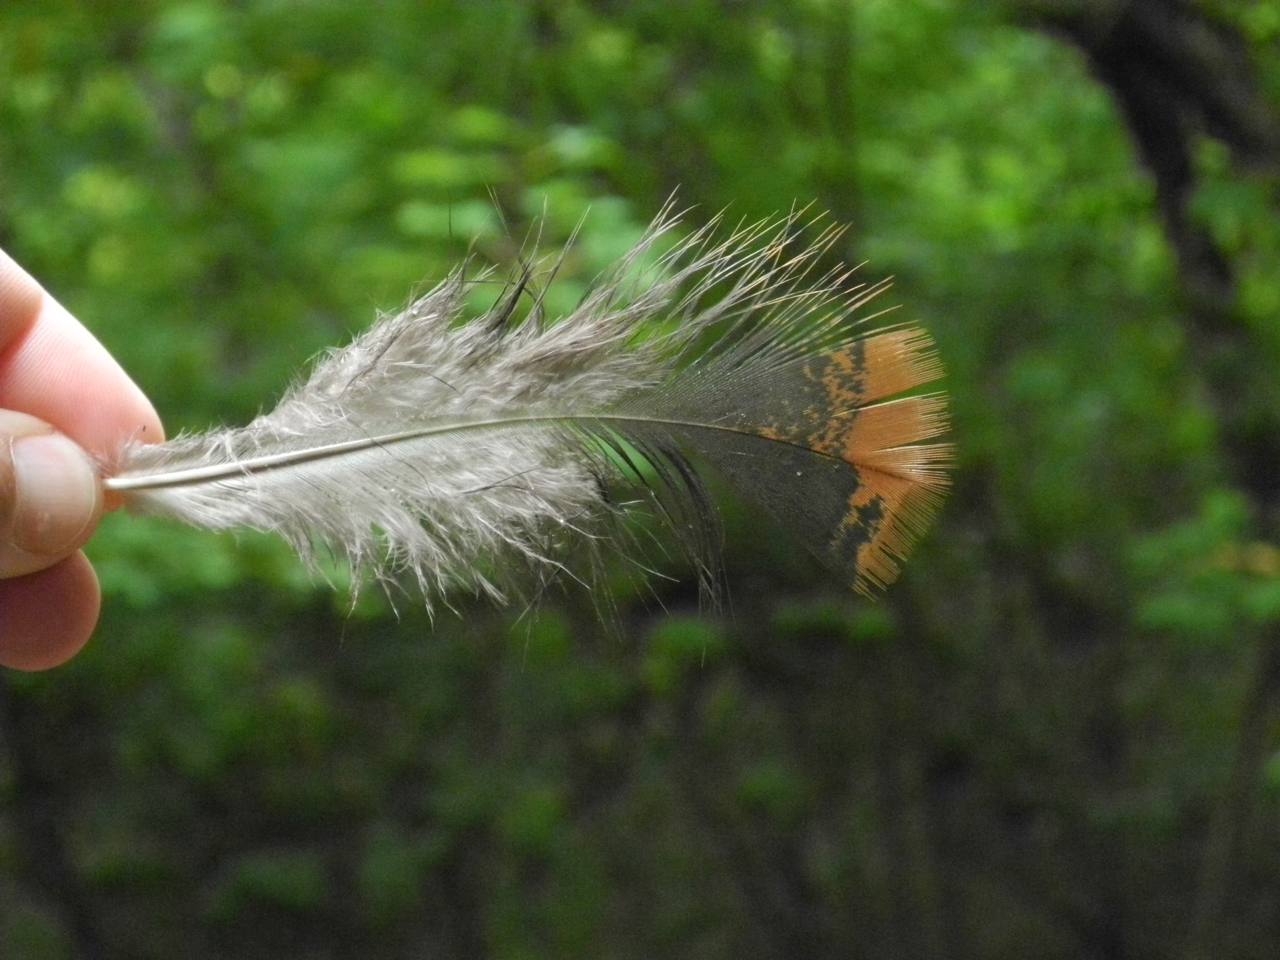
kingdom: Animalia
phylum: Chordata
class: Aves
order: Galliformes
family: Phasianidae
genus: Meleagris
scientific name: Meleagris gallopavo
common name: Wild turkey
